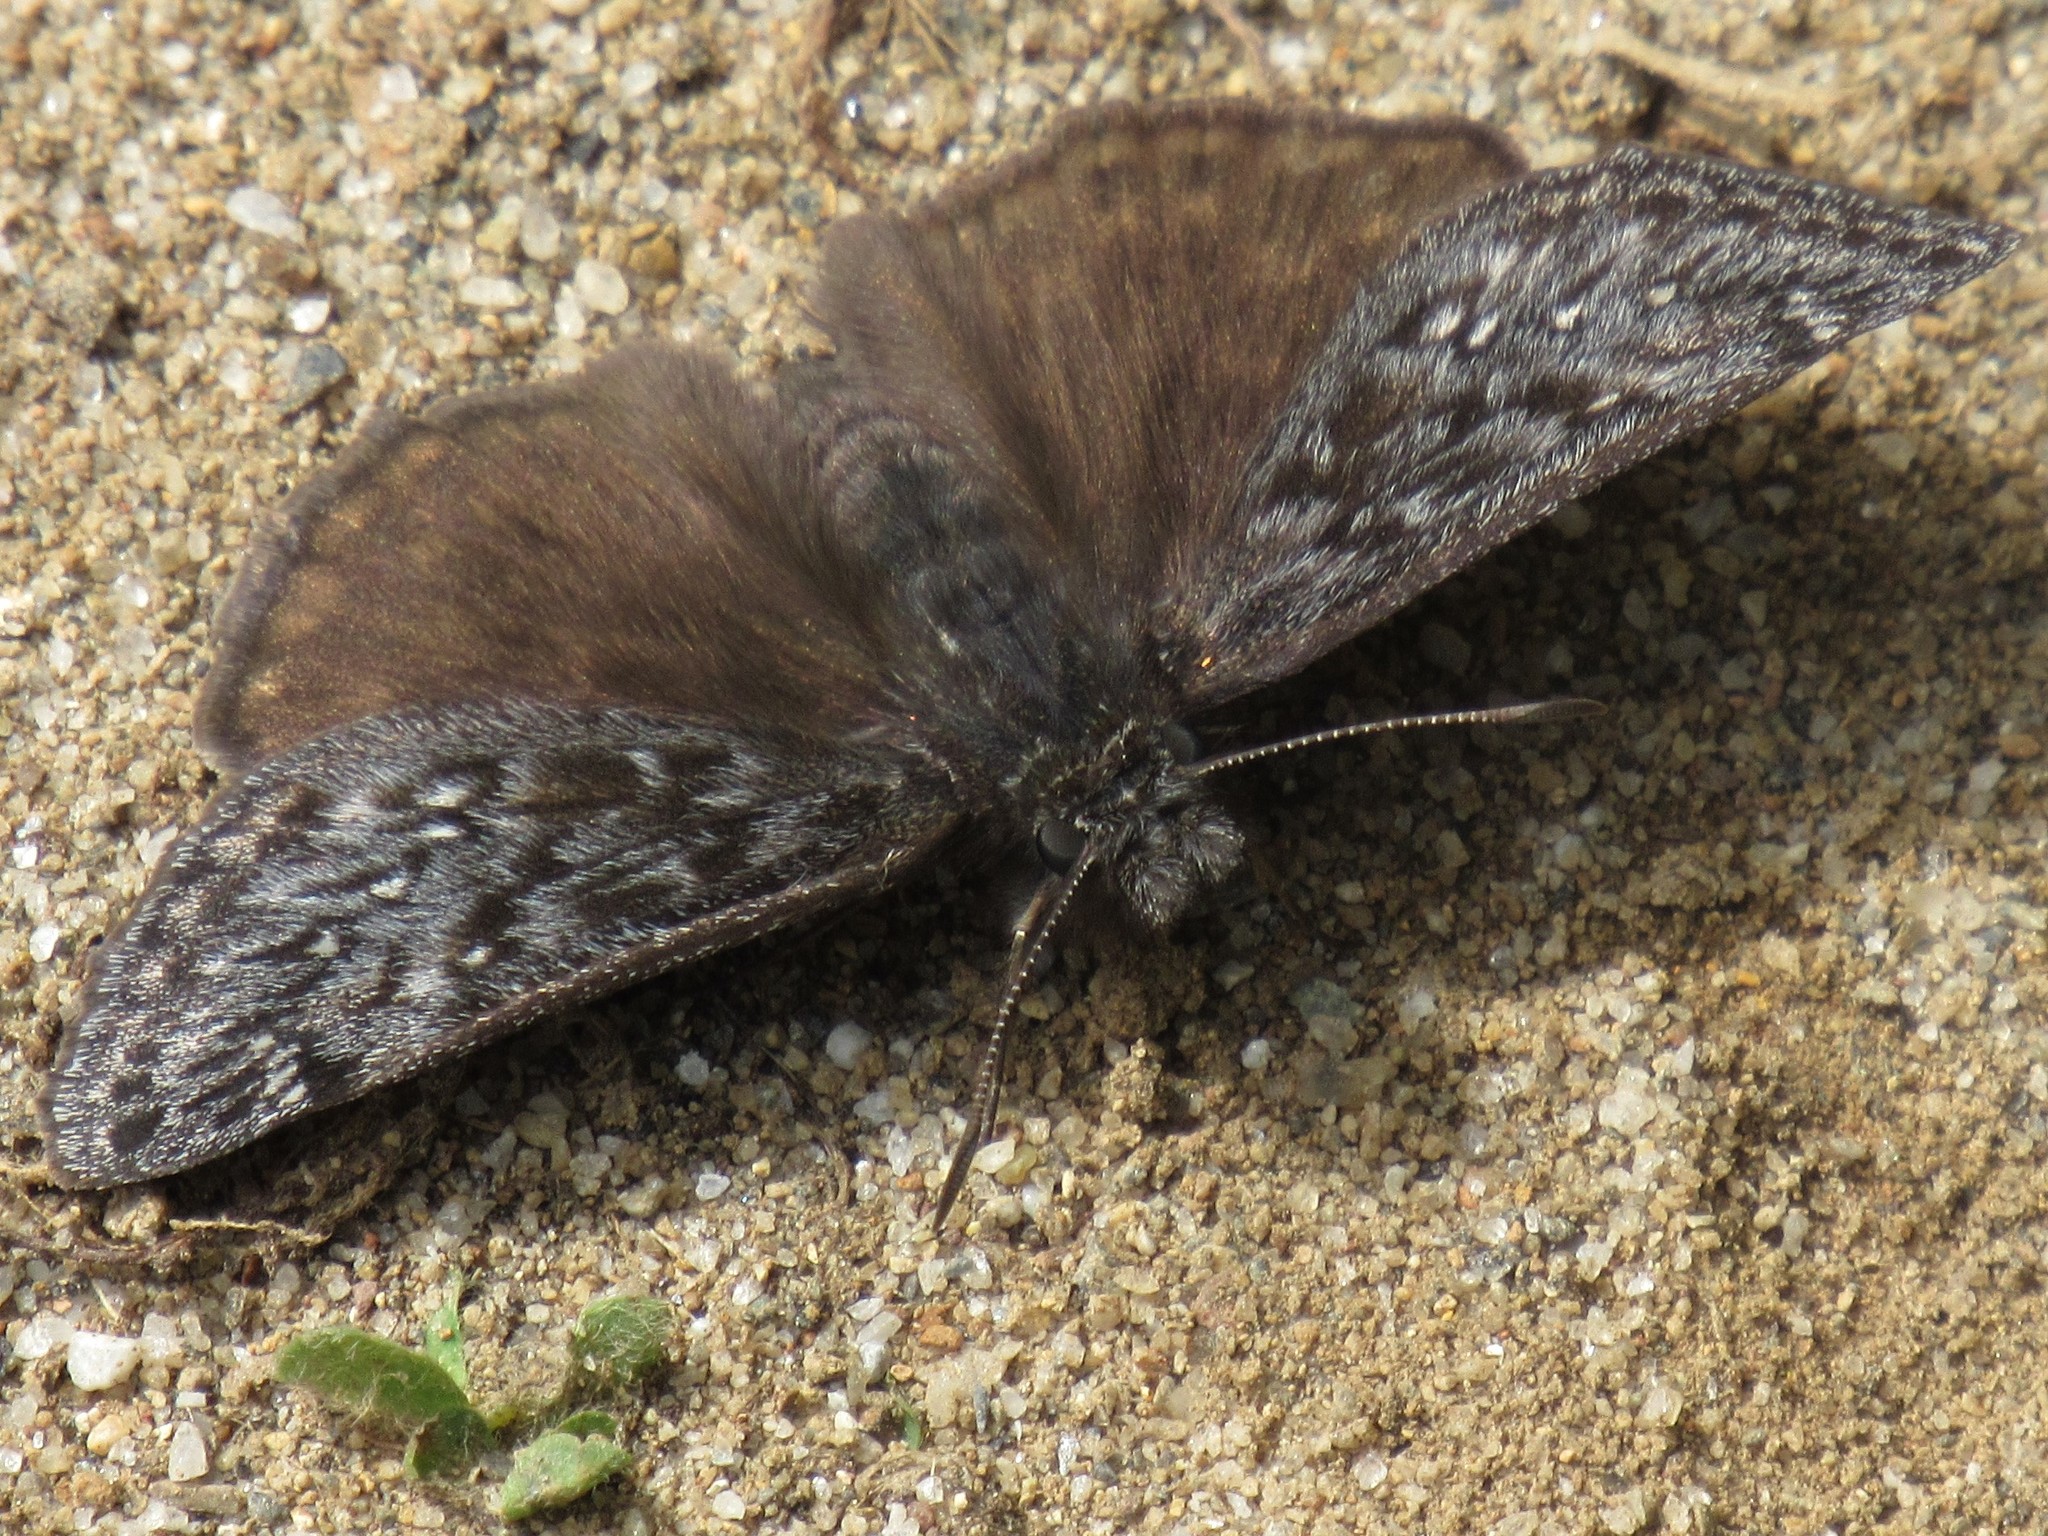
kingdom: Animalia
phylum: Arthropoda
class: Insecta
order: Lepidoptera
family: Hesperiidae
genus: Erynnis
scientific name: Erynnis propertius
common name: Propertius duskywing
